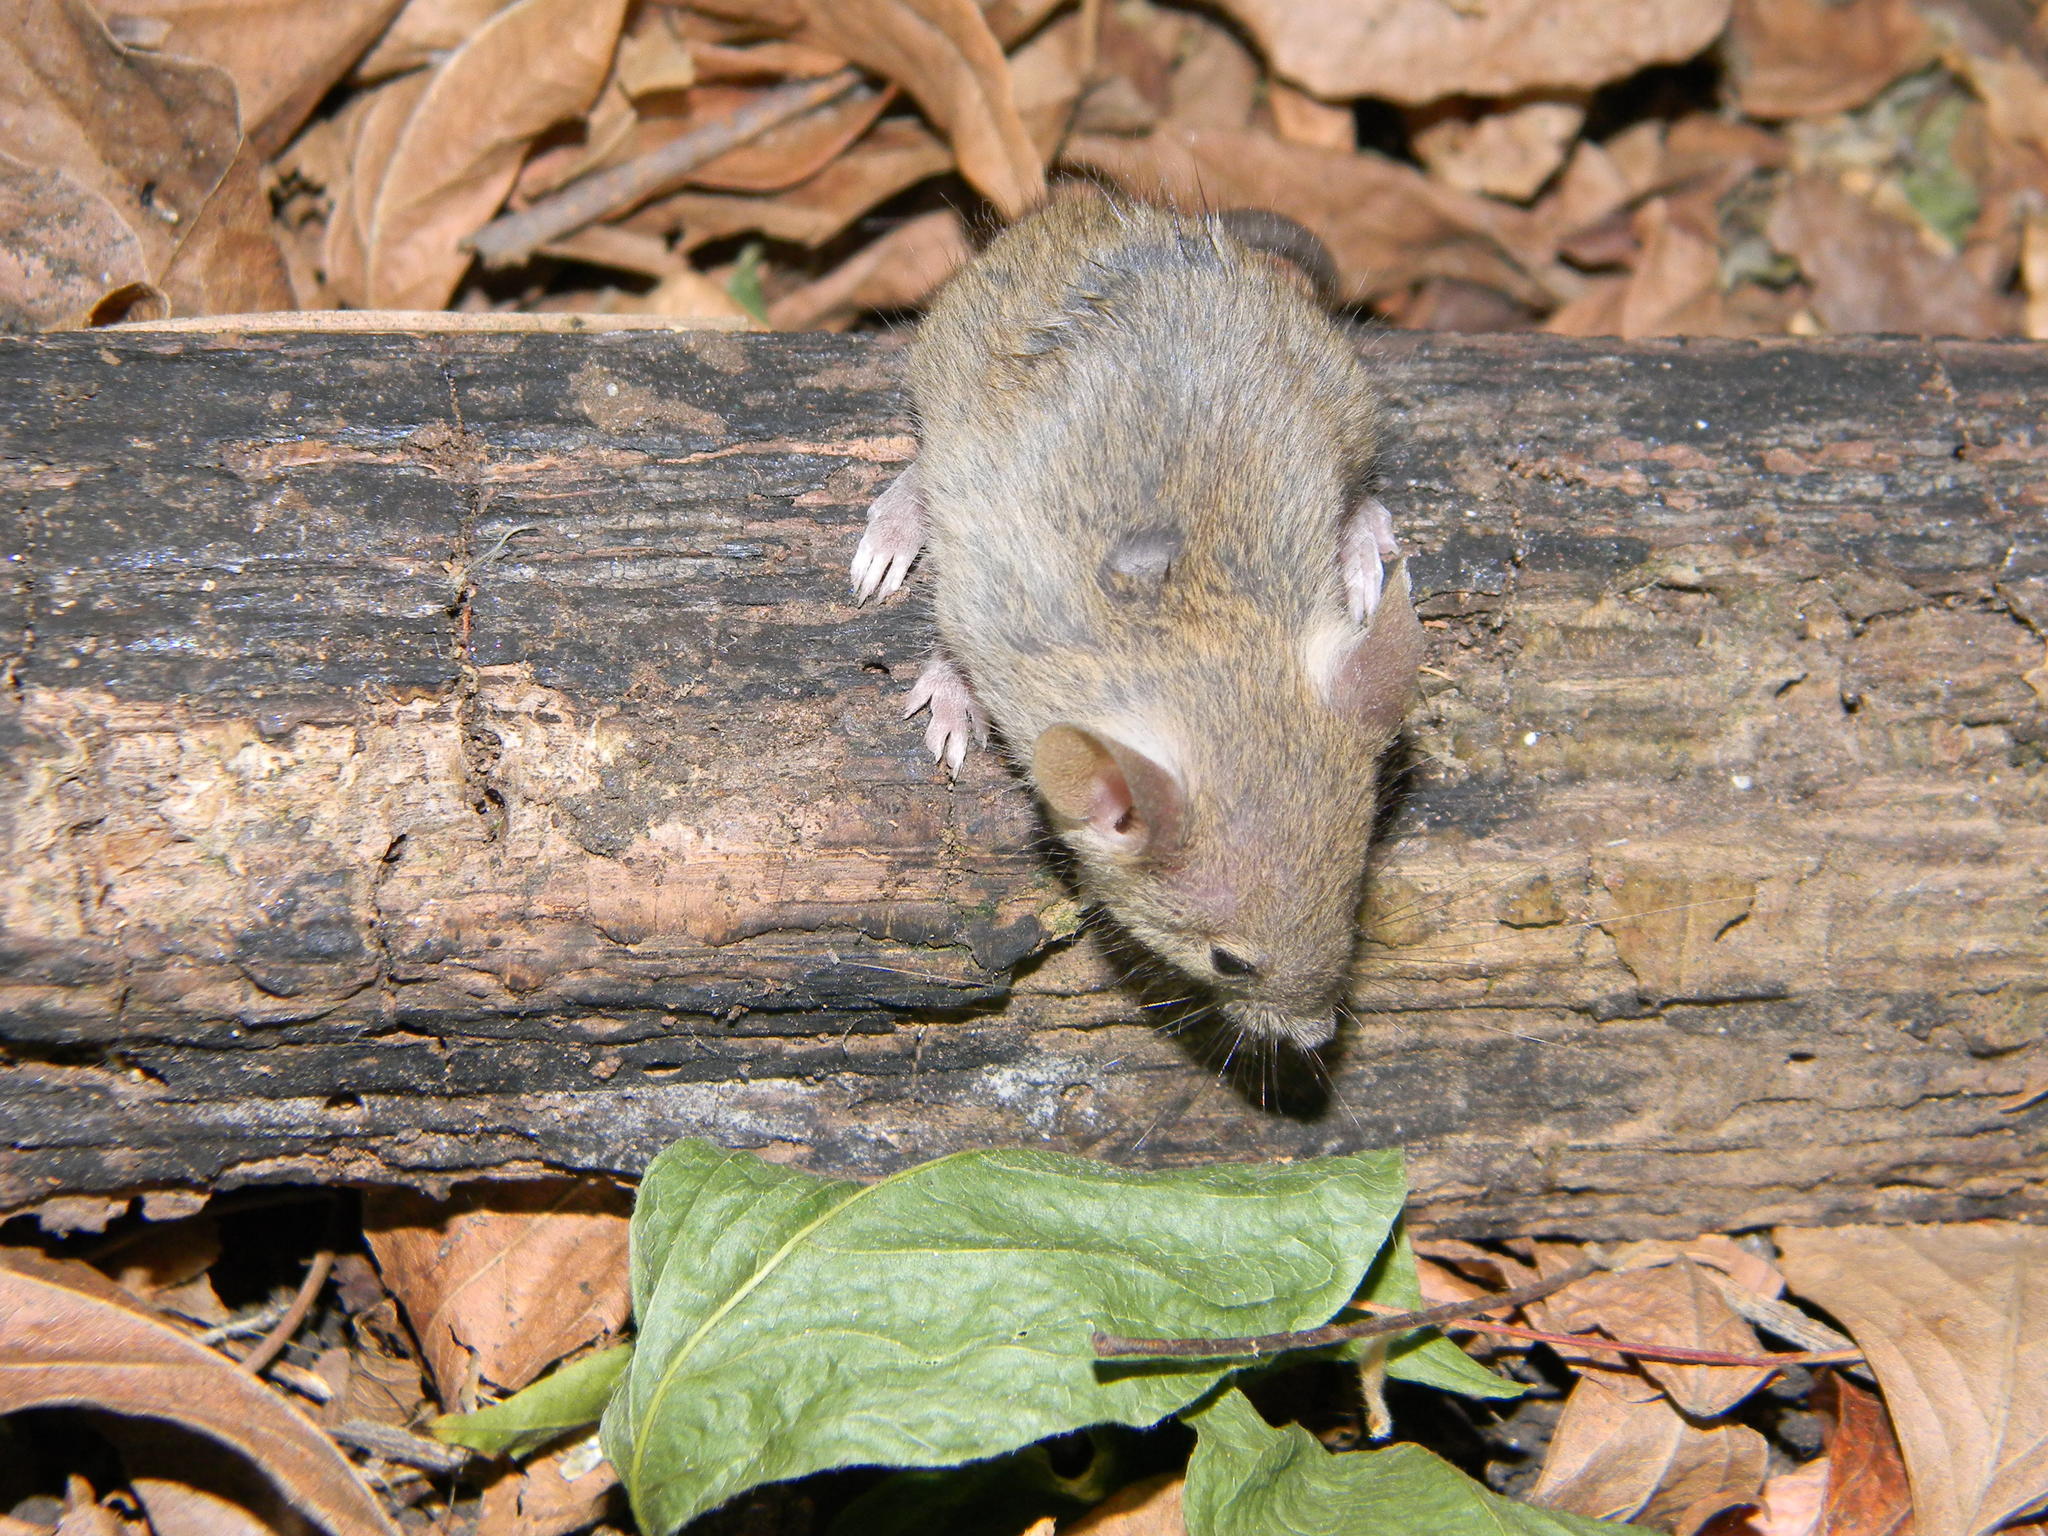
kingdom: Animalia
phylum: Chordata
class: Mammalia
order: Rodentia
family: Muridae
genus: Mus
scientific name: Mus musculus
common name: House mouse
